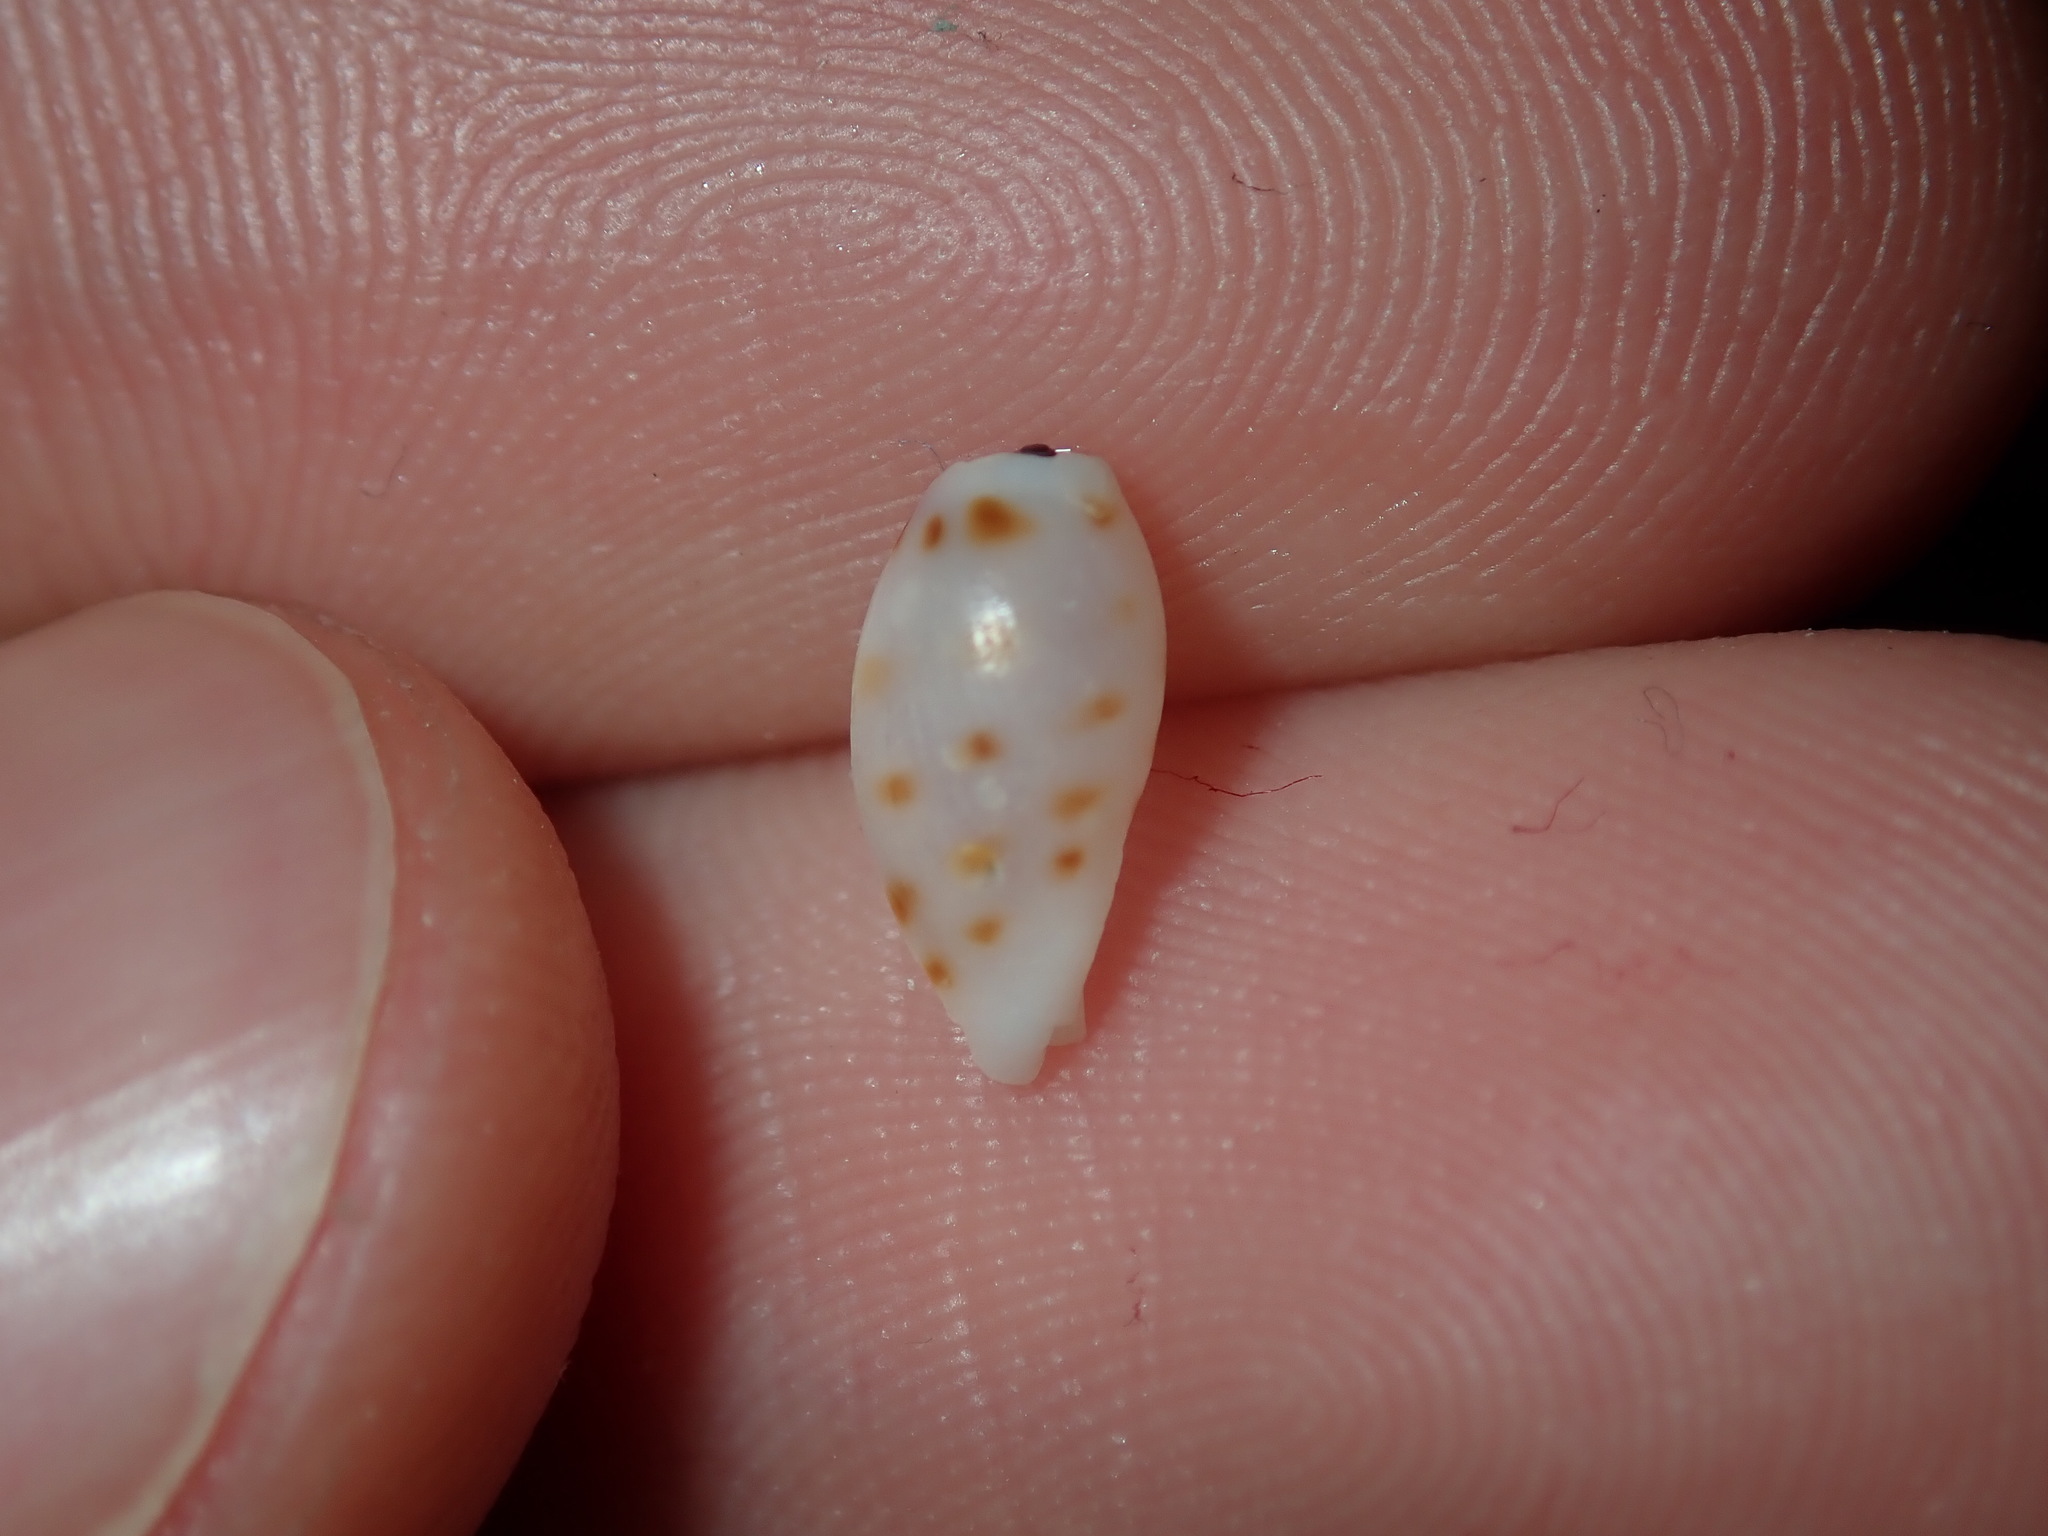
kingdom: Animalia
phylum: Mollusca
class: Gastropoda
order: Littorinimorpha
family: Cypraeidae
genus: Purpuradusta
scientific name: Purpuradusta
